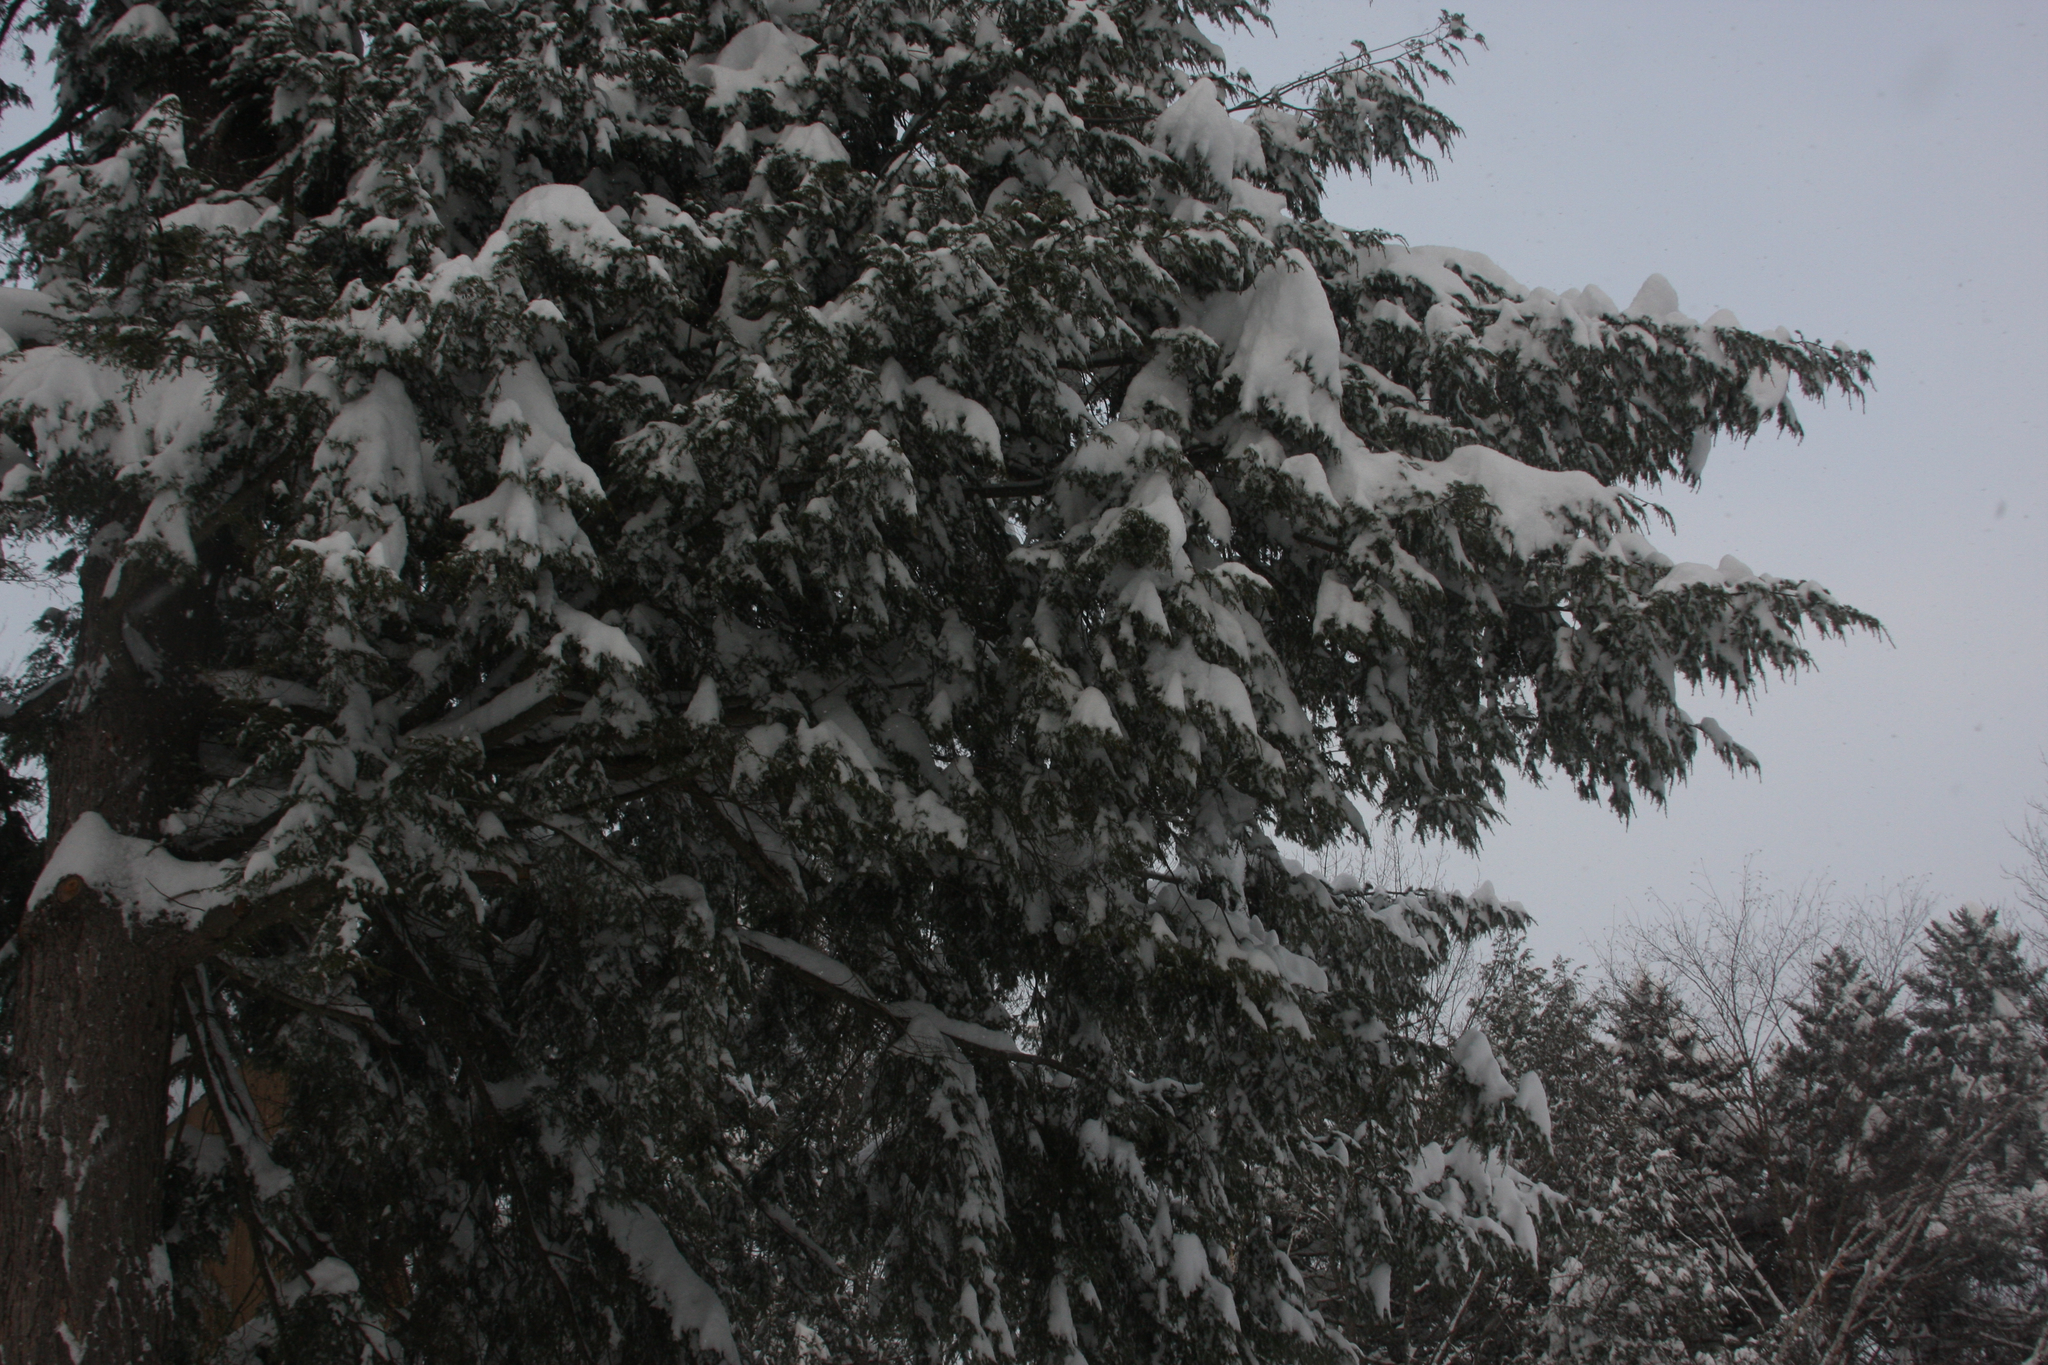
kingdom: Plantae
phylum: Tracheophyta
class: Pinopsida
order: Pinales
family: Pinaceae
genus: Tsuga
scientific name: Tsuga canadensis
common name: Eastern hemlock
